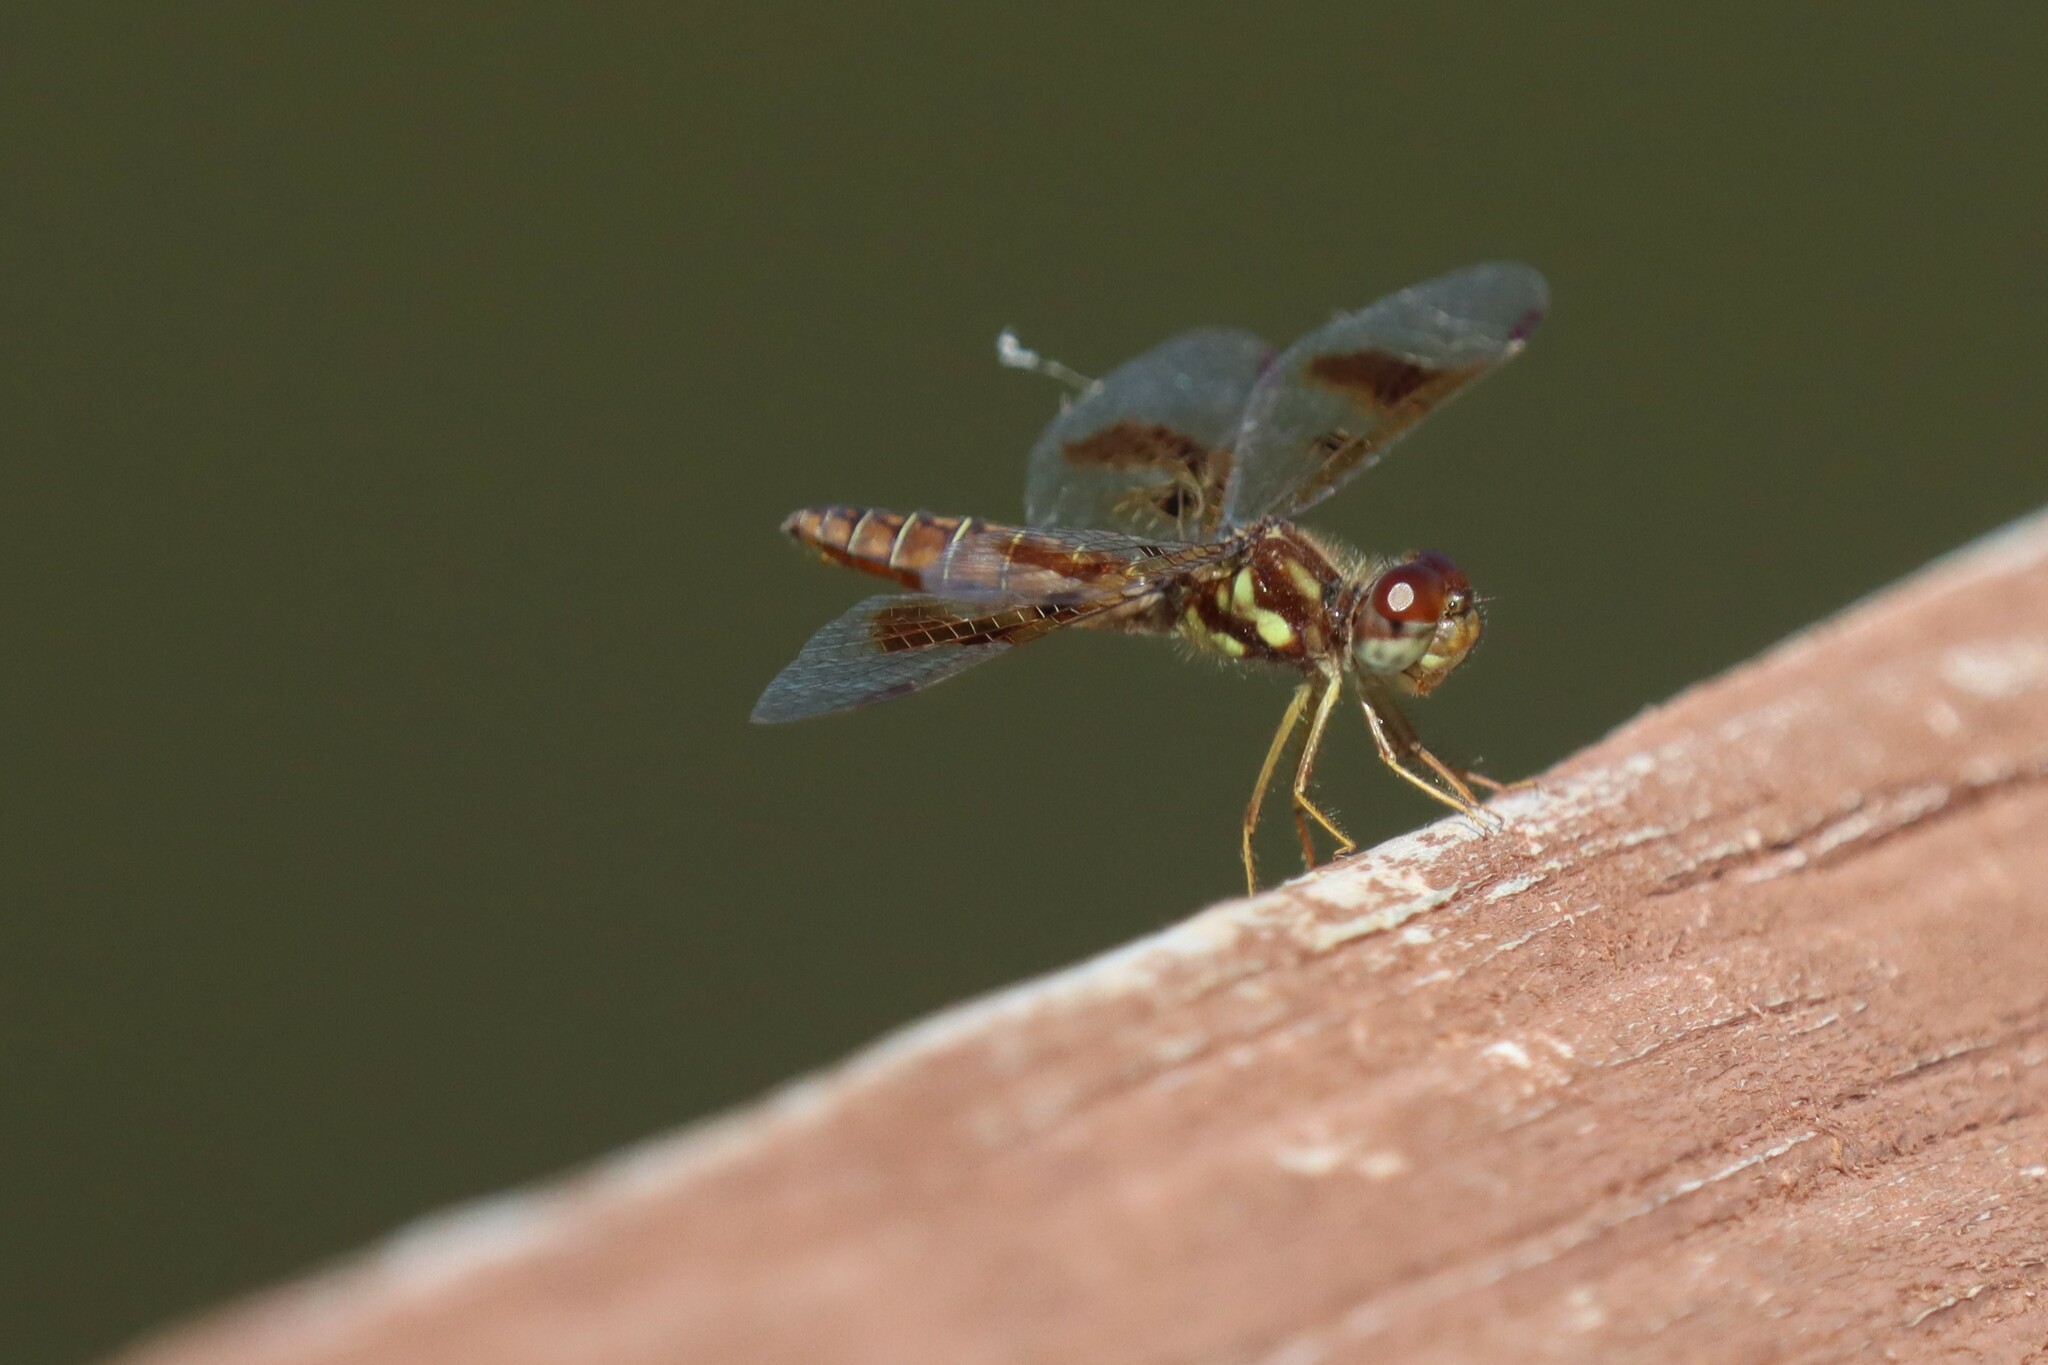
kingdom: Animalia
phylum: Arthropoda
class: Insecta
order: Odonata
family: Libellulidae
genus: Perithemis
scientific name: Perithemis tenera
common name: Eastern amberwing
